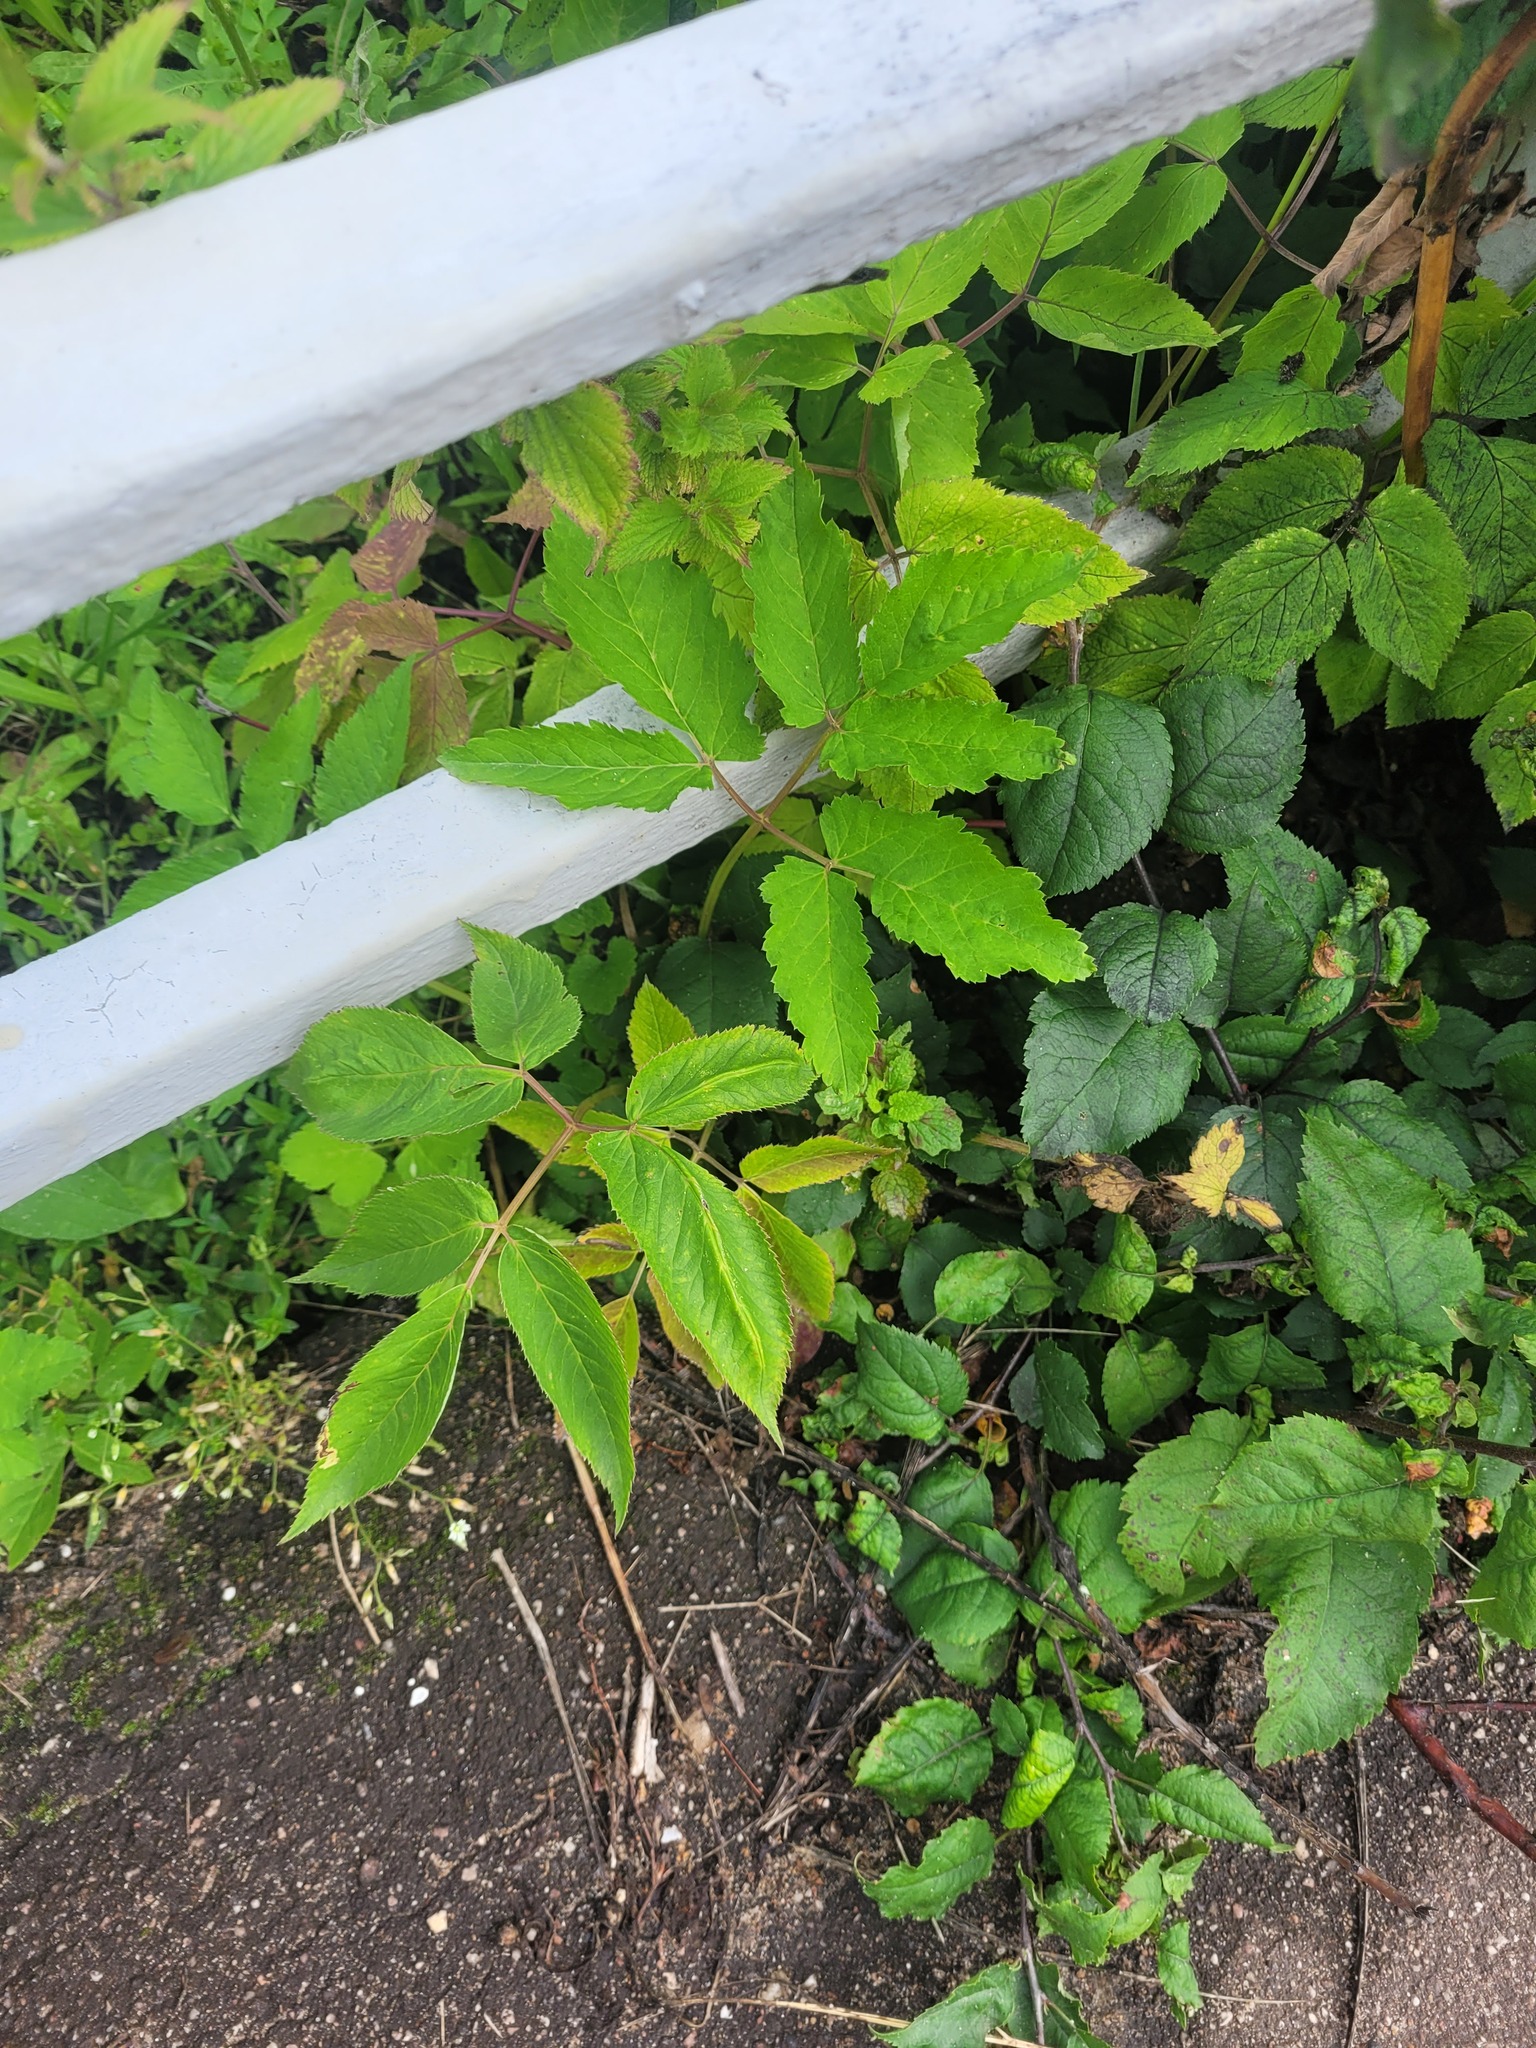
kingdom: Plantae
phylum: Tracheophyta
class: Magnoliopsida
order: Apiales
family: Apiaceae
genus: Aegopodium
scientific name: Aegopodium podagraria
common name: Ground-elder
